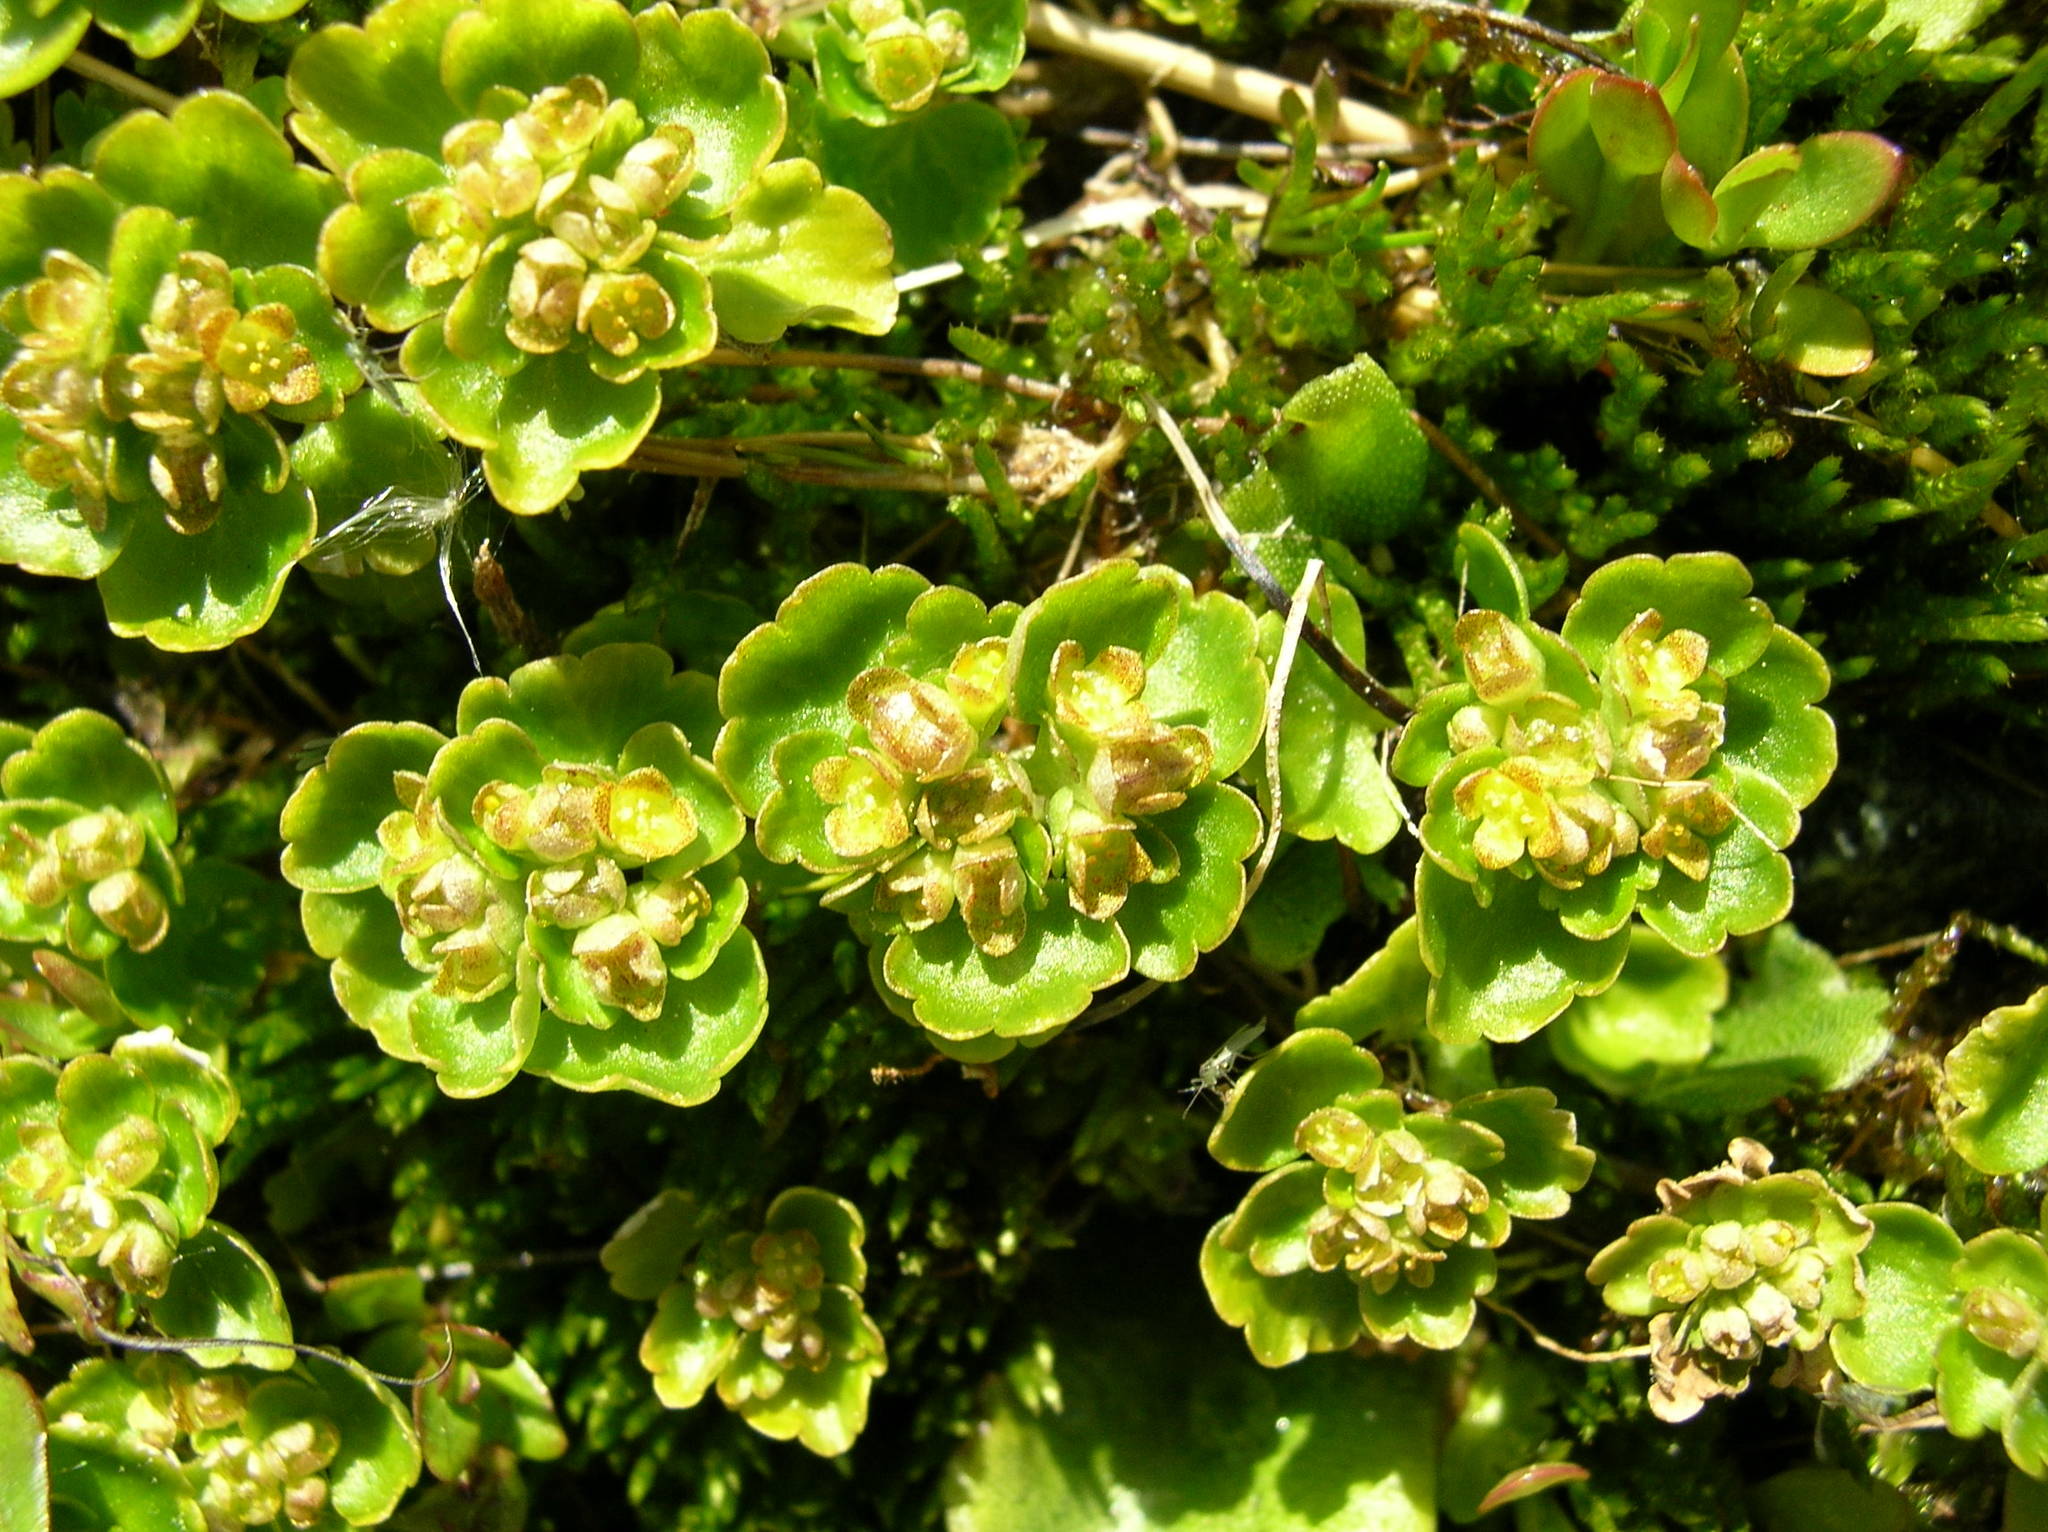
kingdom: Plantae
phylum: Tracheophyta
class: Magnoliopsida
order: Saxifragales
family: Saxifragaceae
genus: Chrysosplenium
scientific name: Chrysosplenium tetrandrum
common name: Green saxifrage
